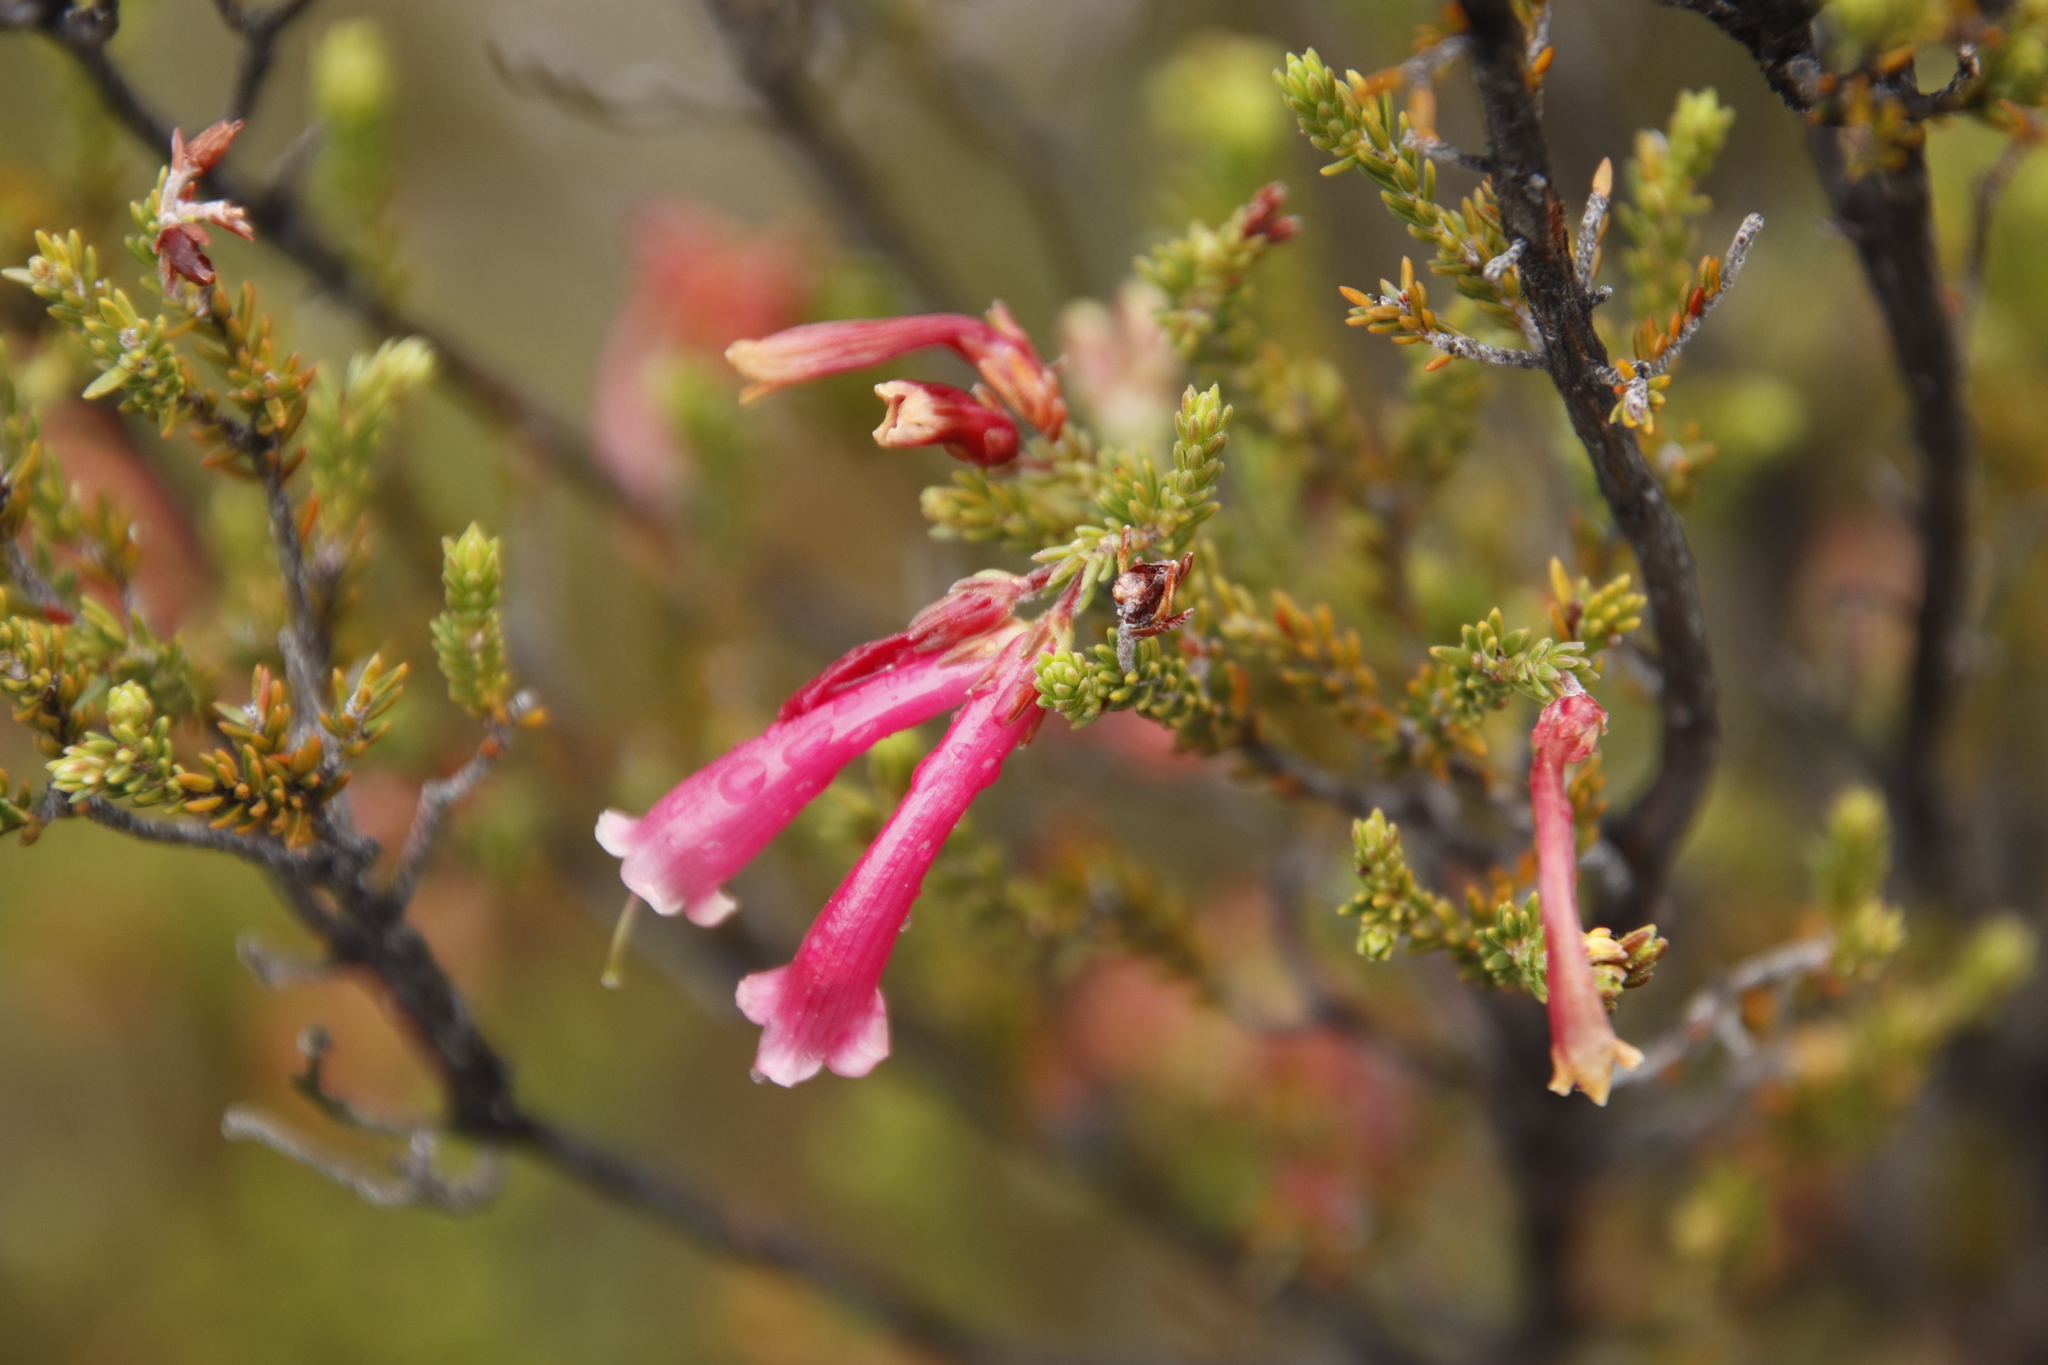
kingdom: Plantae
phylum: Tracheophyta
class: Magnoliopsida
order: Ericales
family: Ericaceae
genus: Erica
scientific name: Erica discolor
